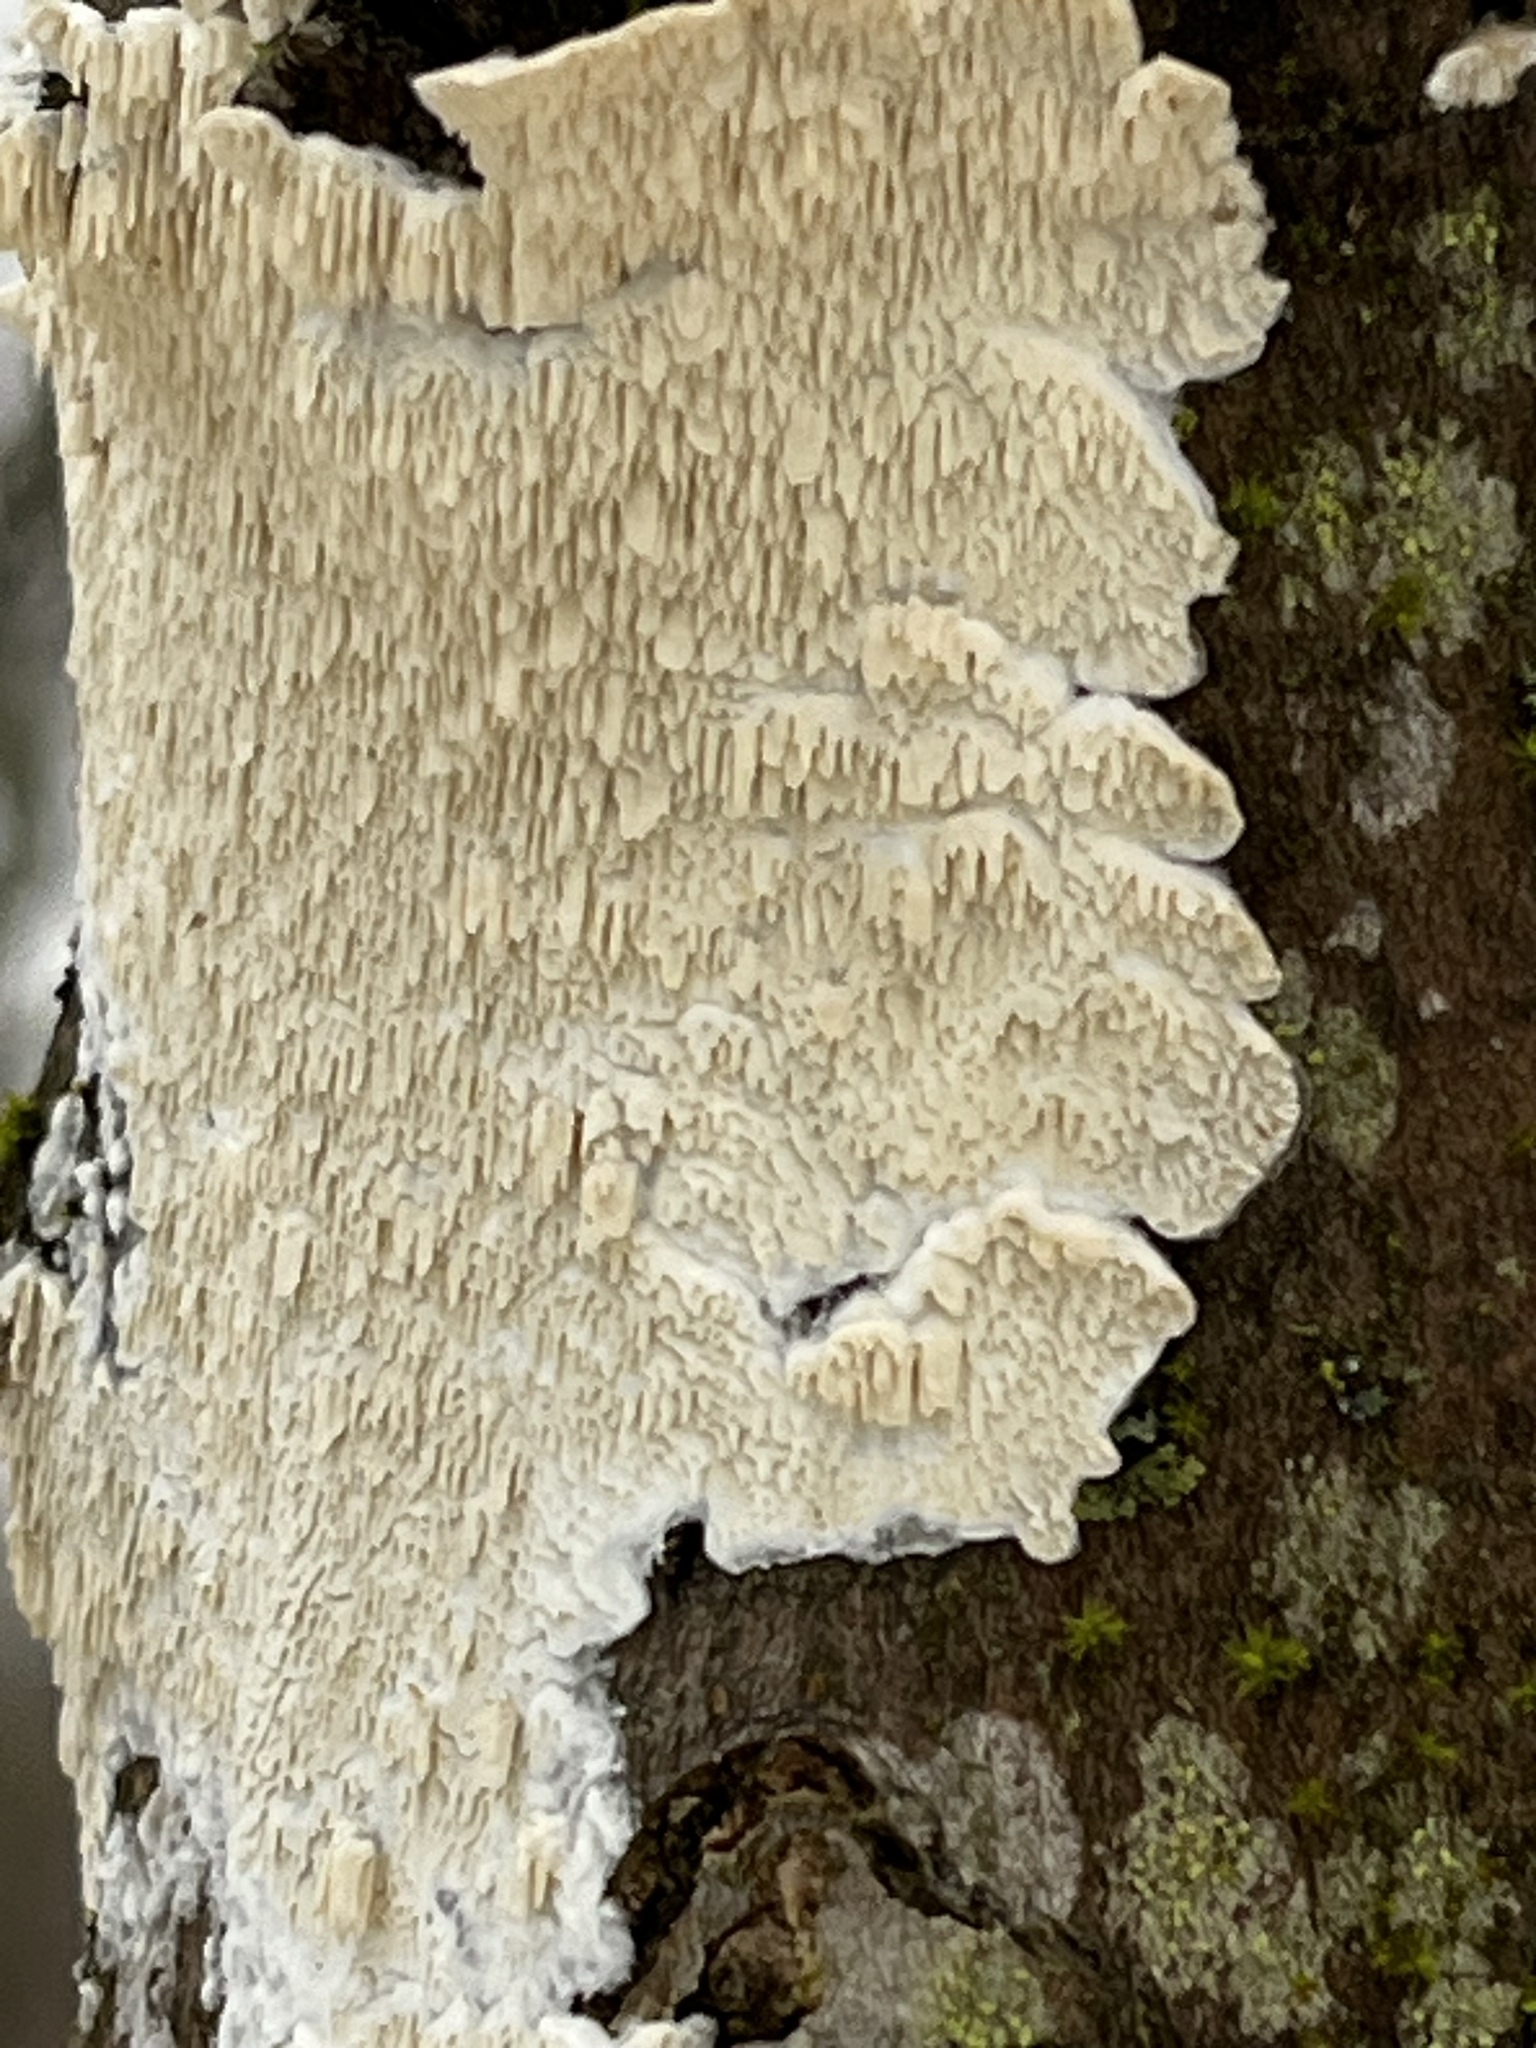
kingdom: Fungi
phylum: Basidiomycota
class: Agaricomycetes
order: Polyporales
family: Irpicaceae
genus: Irpex
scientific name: Irpex lacteus
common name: Milk-white toothed polypore
